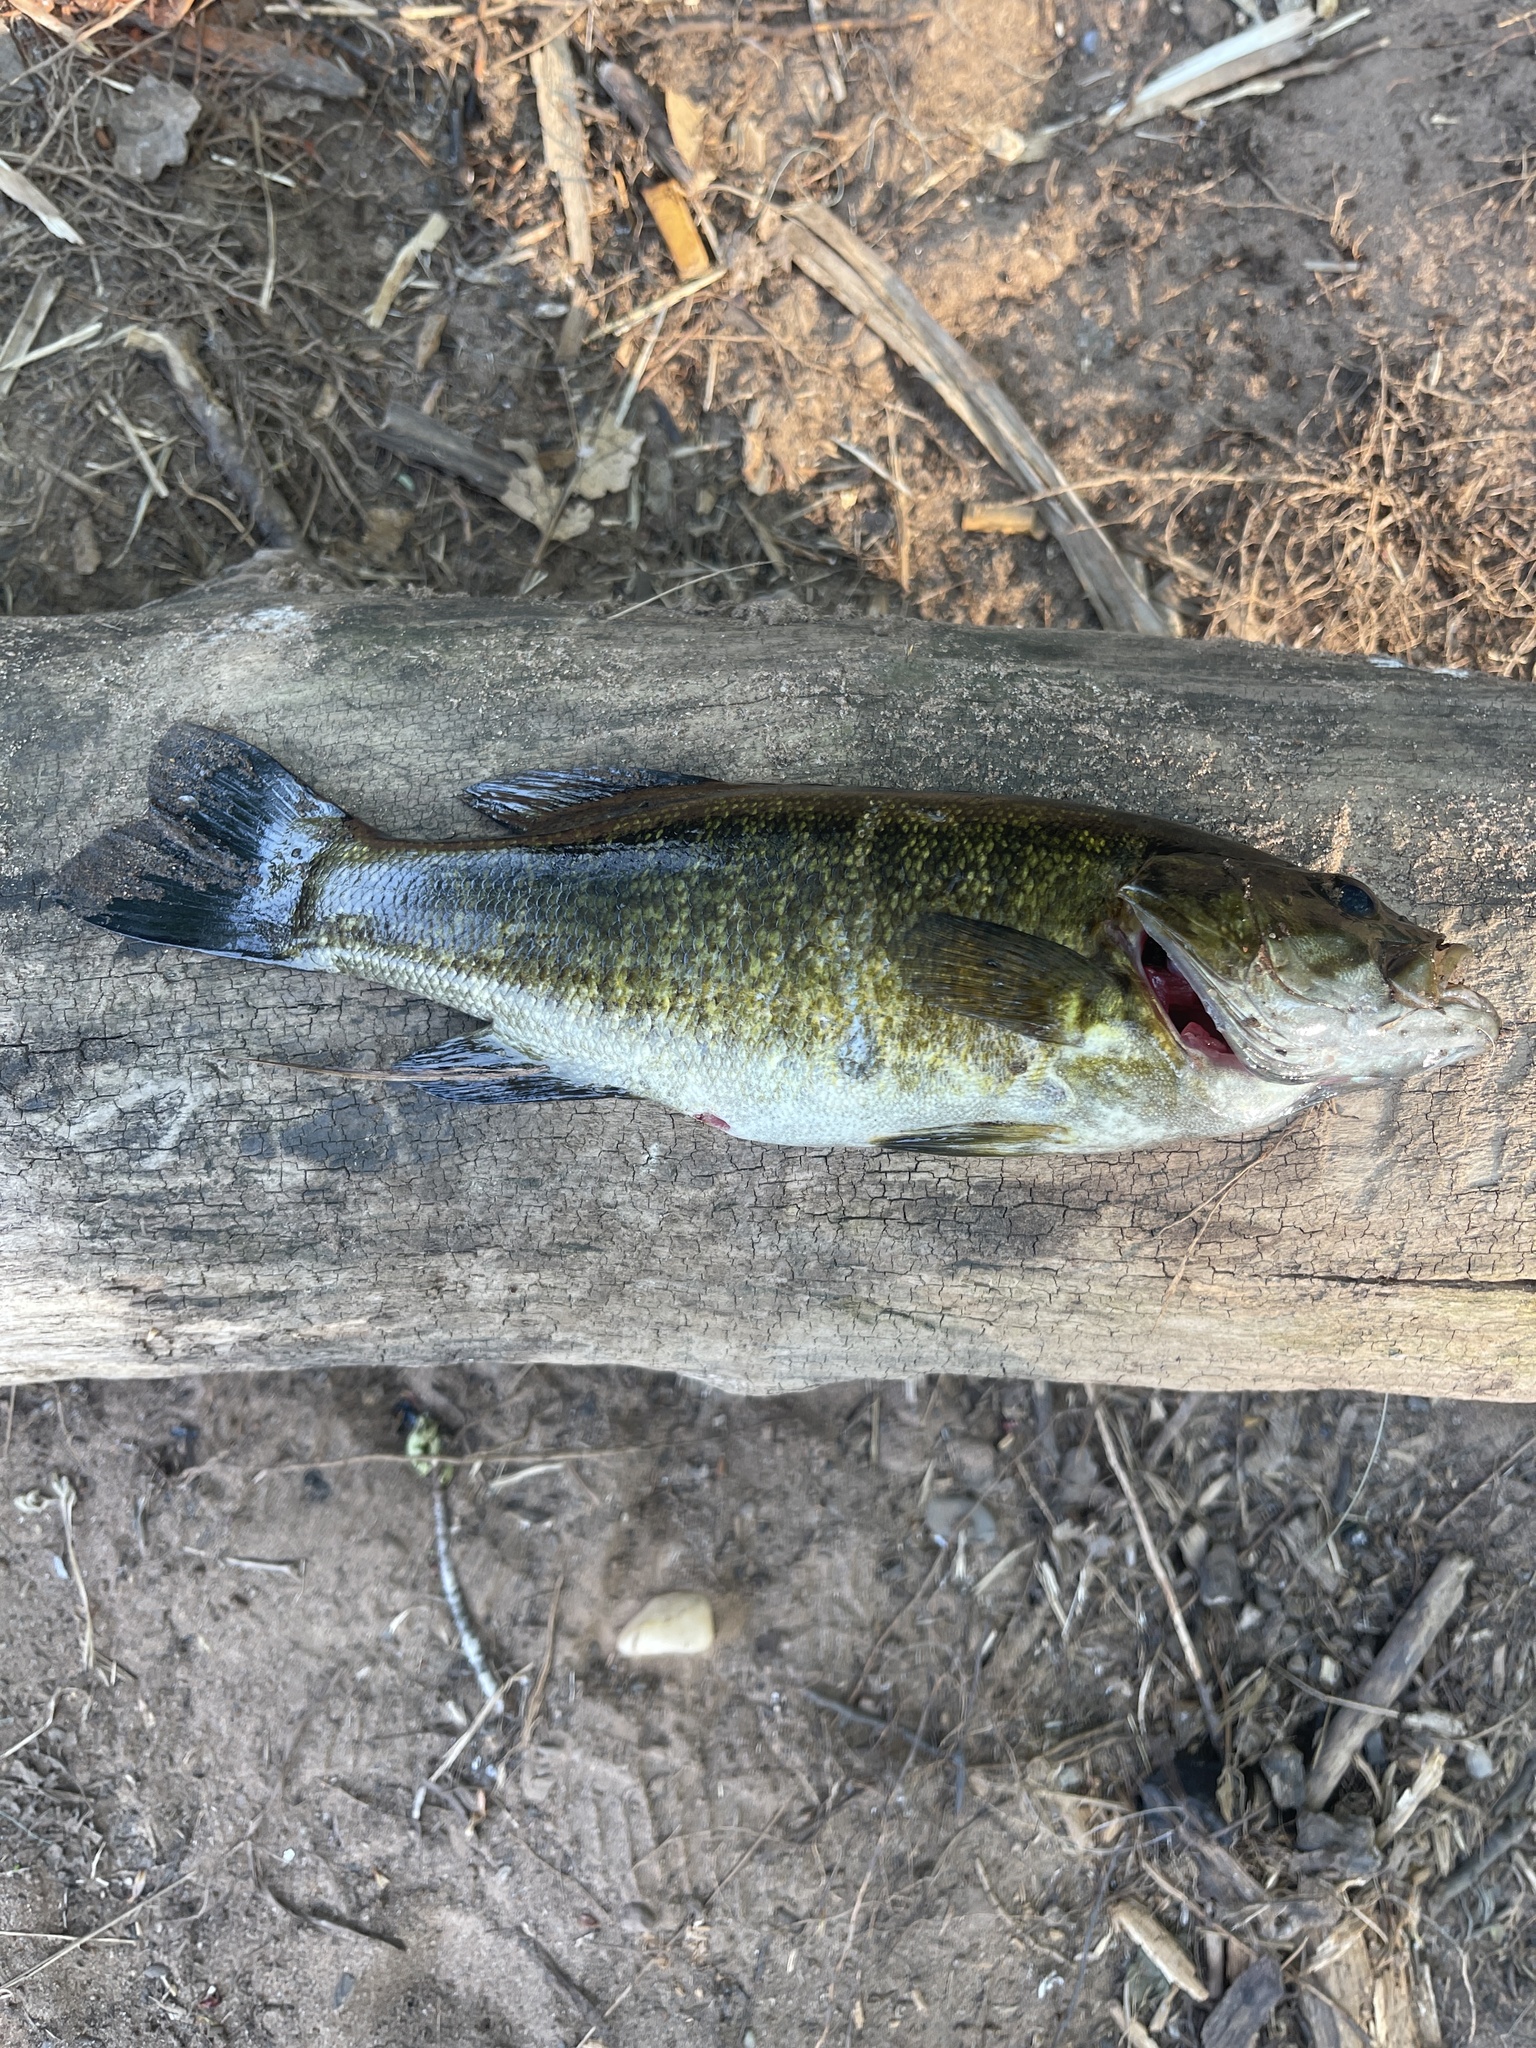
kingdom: Animalia
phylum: Chordata
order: Perciformes
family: Centrarchidae
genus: Micropterus
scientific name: Micropterus dolomieu
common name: Smallmouth bass
